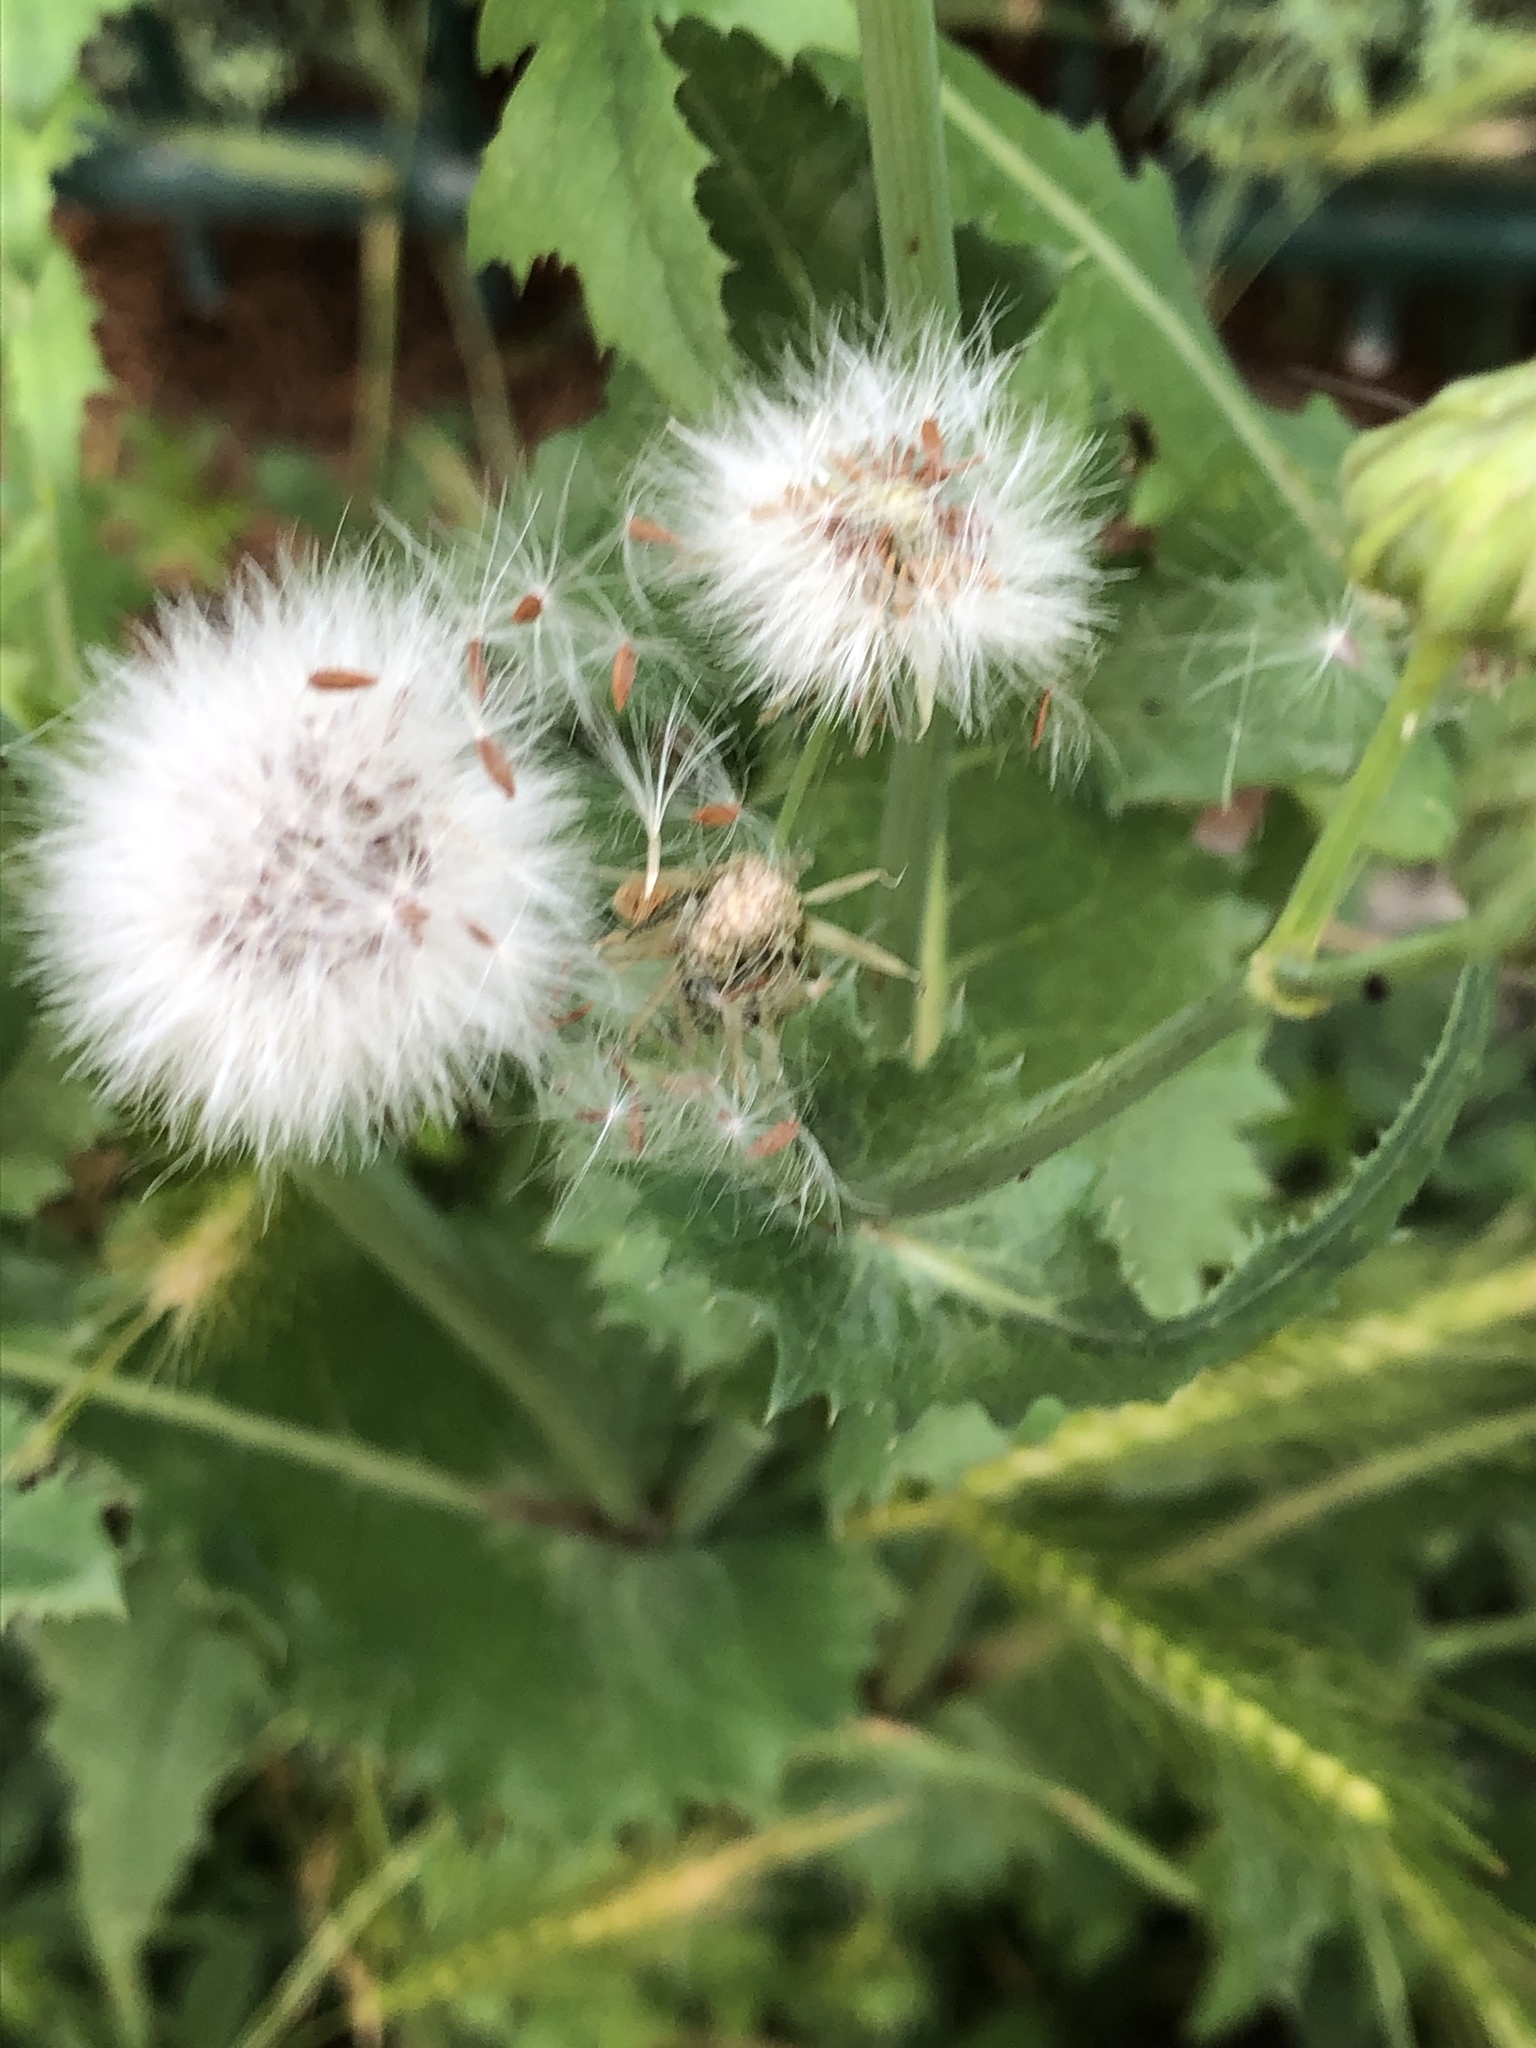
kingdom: Plantae
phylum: Tracheophyta
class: Magnoliopsida
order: Asterales
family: Asteraceae
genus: Sonchus
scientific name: Sonchus oleraceus
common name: Common sowthistle
